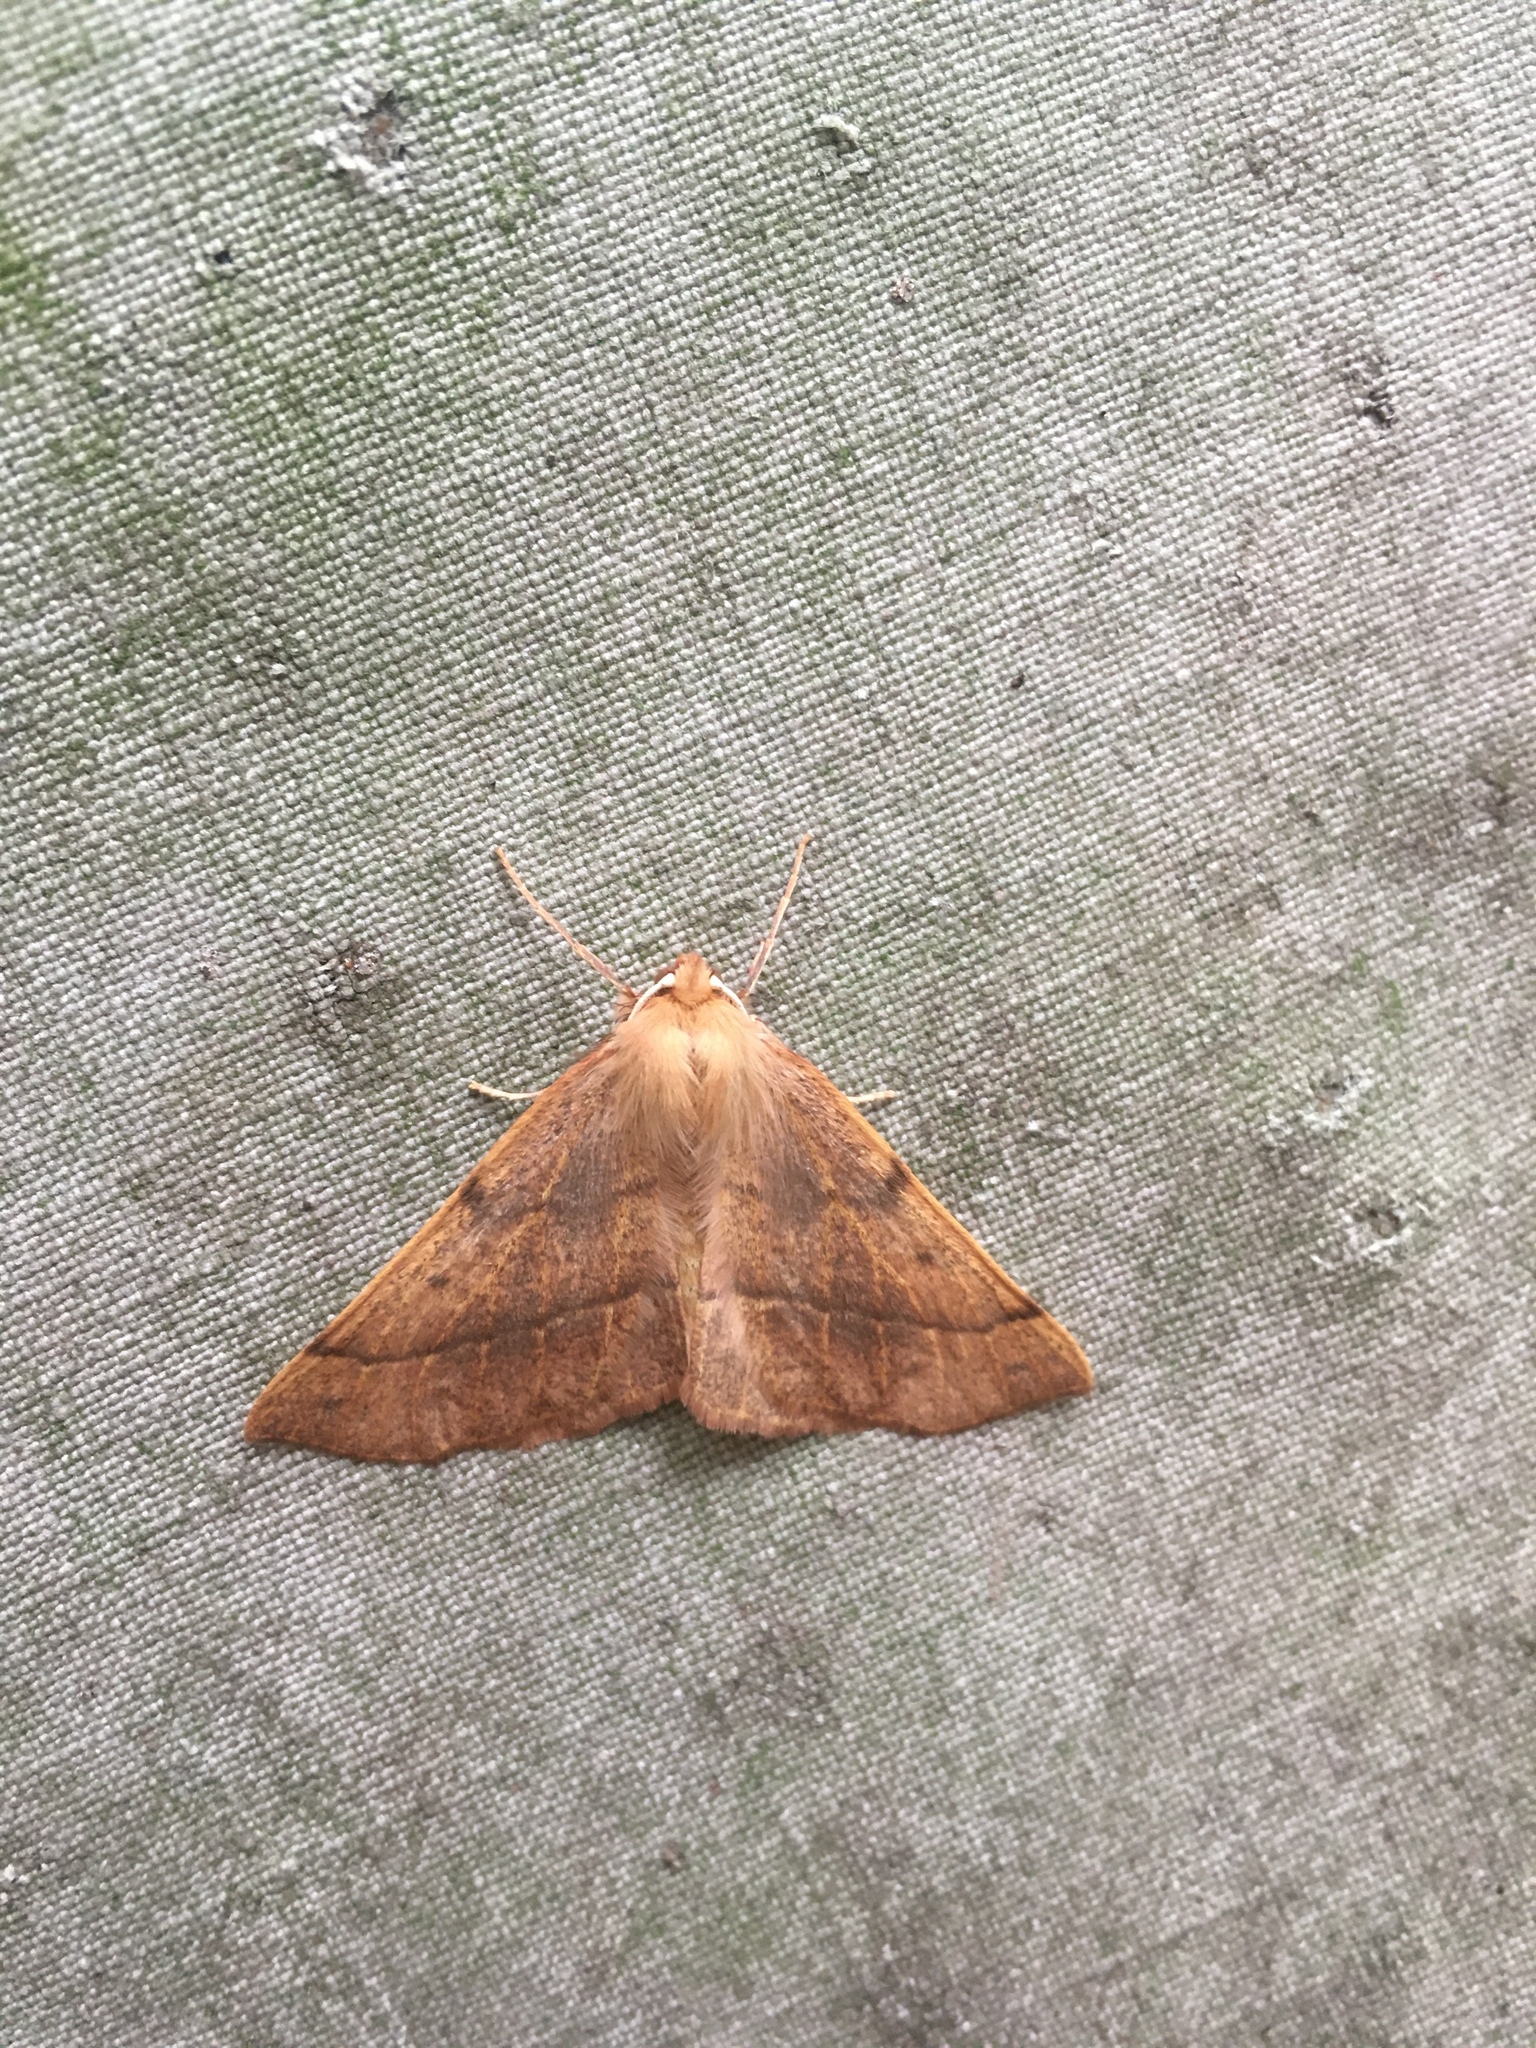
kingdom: Animalia
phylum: Arthropoda
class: Insecta
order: Lepidoptera
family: Geometridae
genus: Colotois
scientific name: Colotois pennaria
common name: Feathered thorn
